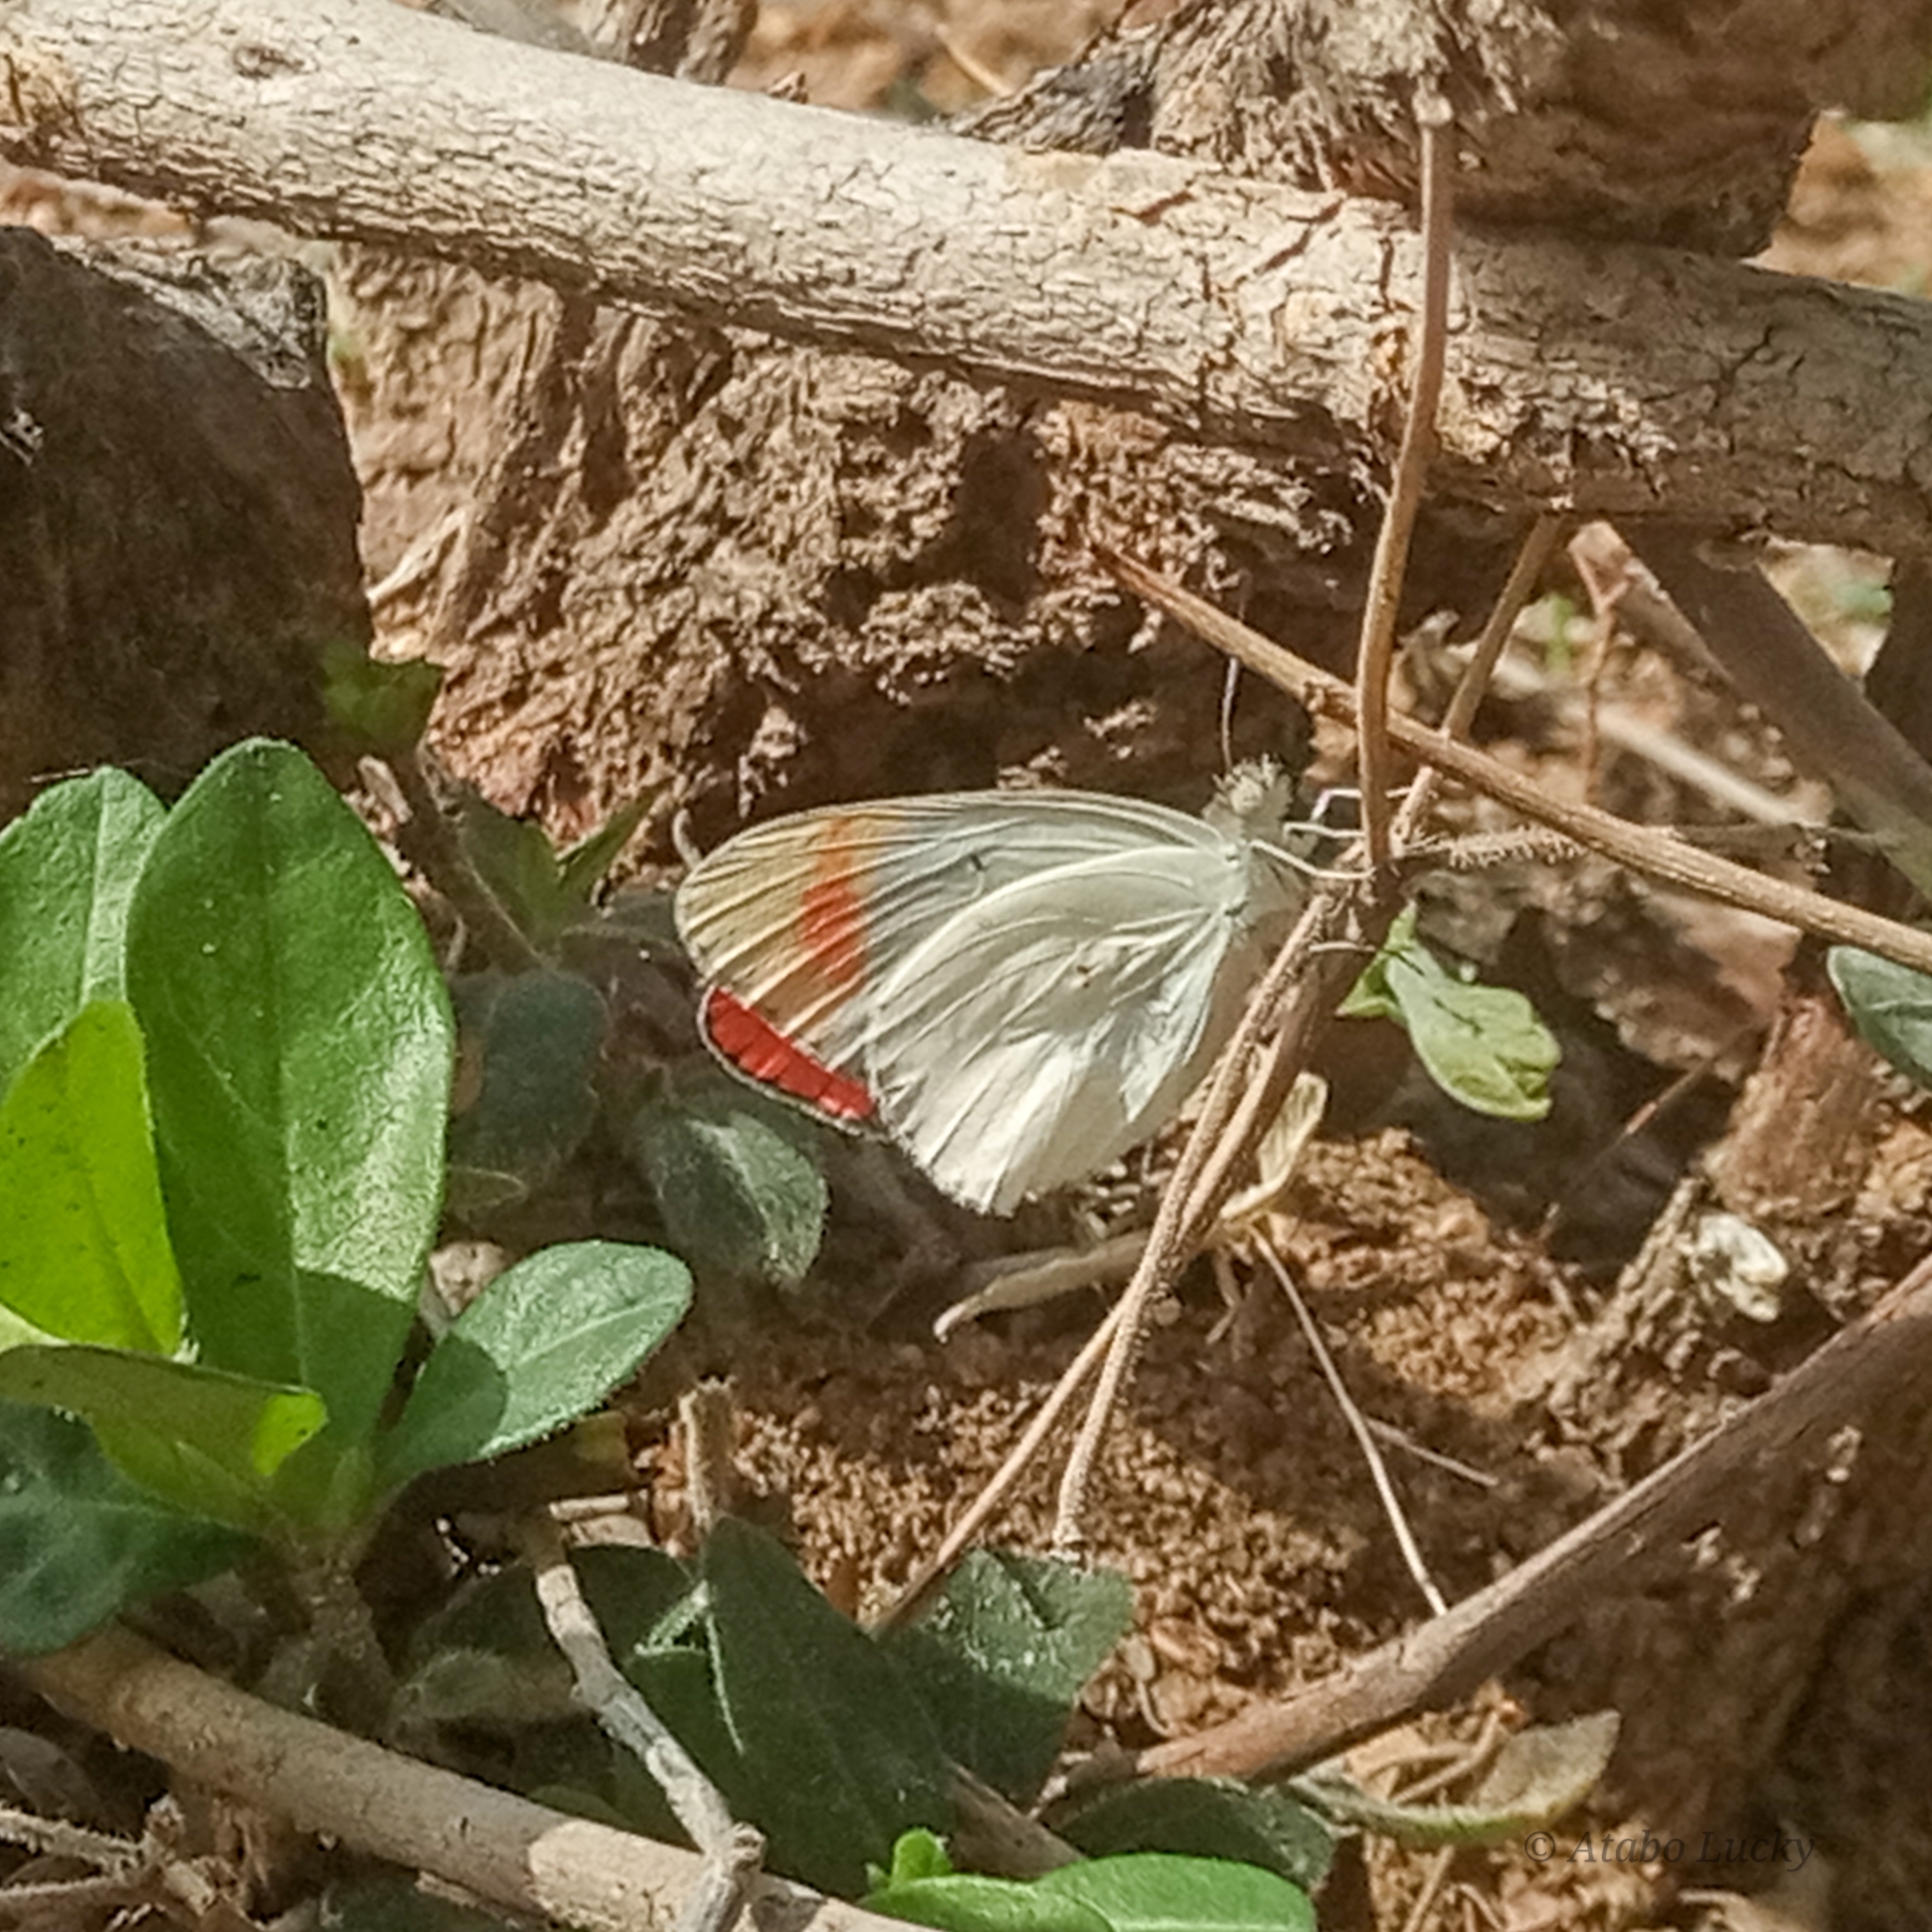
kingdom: Animalia
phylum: Arthropoda
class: Insecta
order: Lepidoptera
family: Pieridae
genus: Colotis
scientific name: Colotis antevippe
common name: Large orange tip
